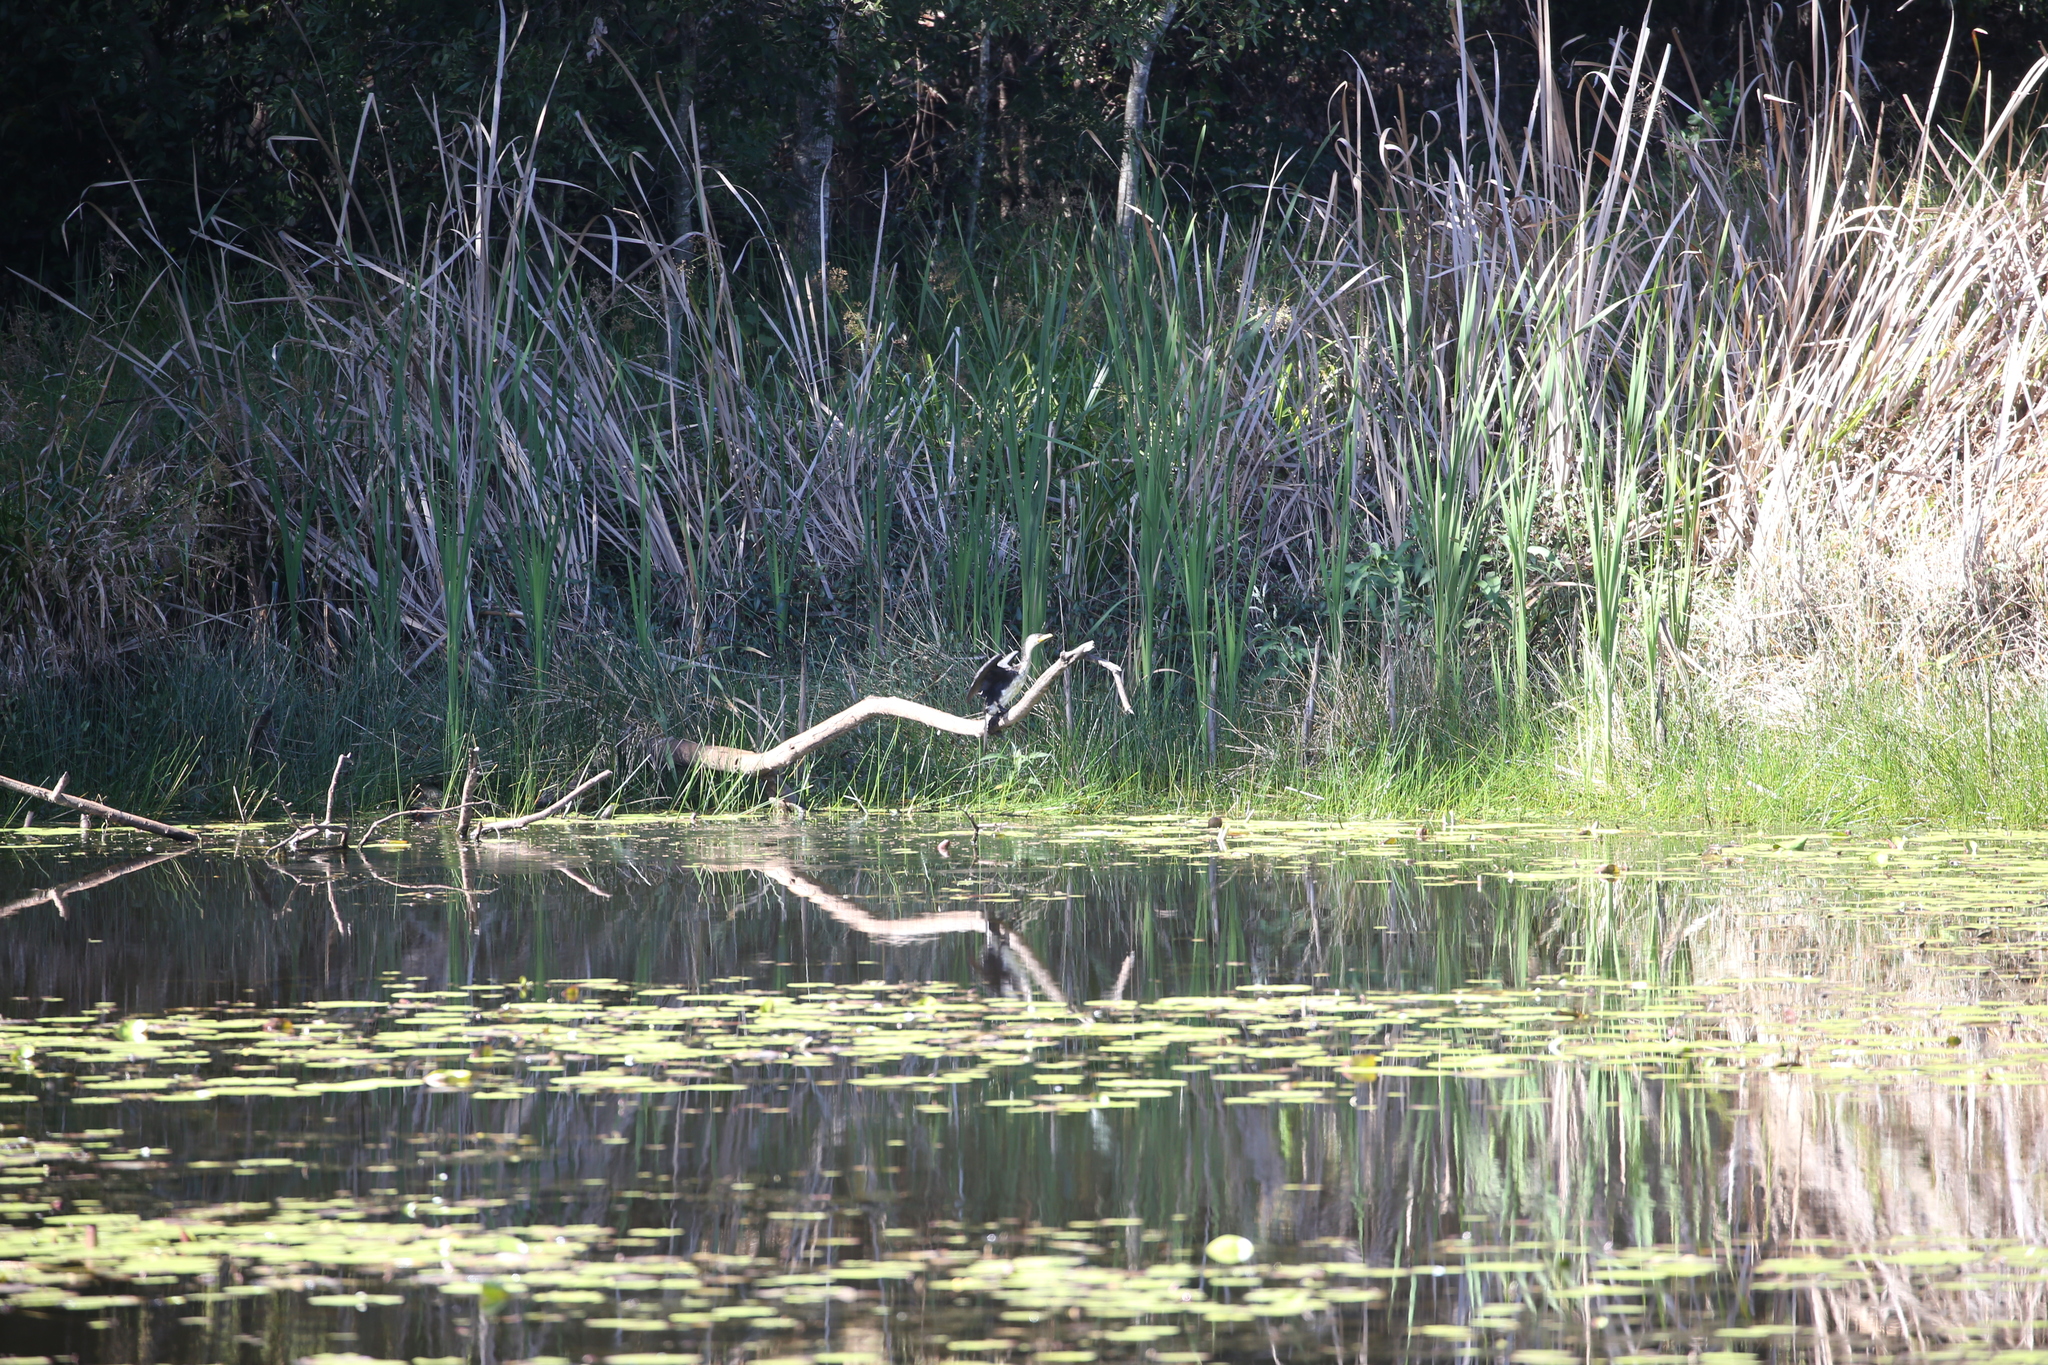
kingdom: Animalia
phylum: Chordata
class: Aves
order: Suliformes
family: Phalacrocoracidae
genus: Microcarbo
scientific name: Microcarbo melanoleucos
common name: Little pied cormorant
